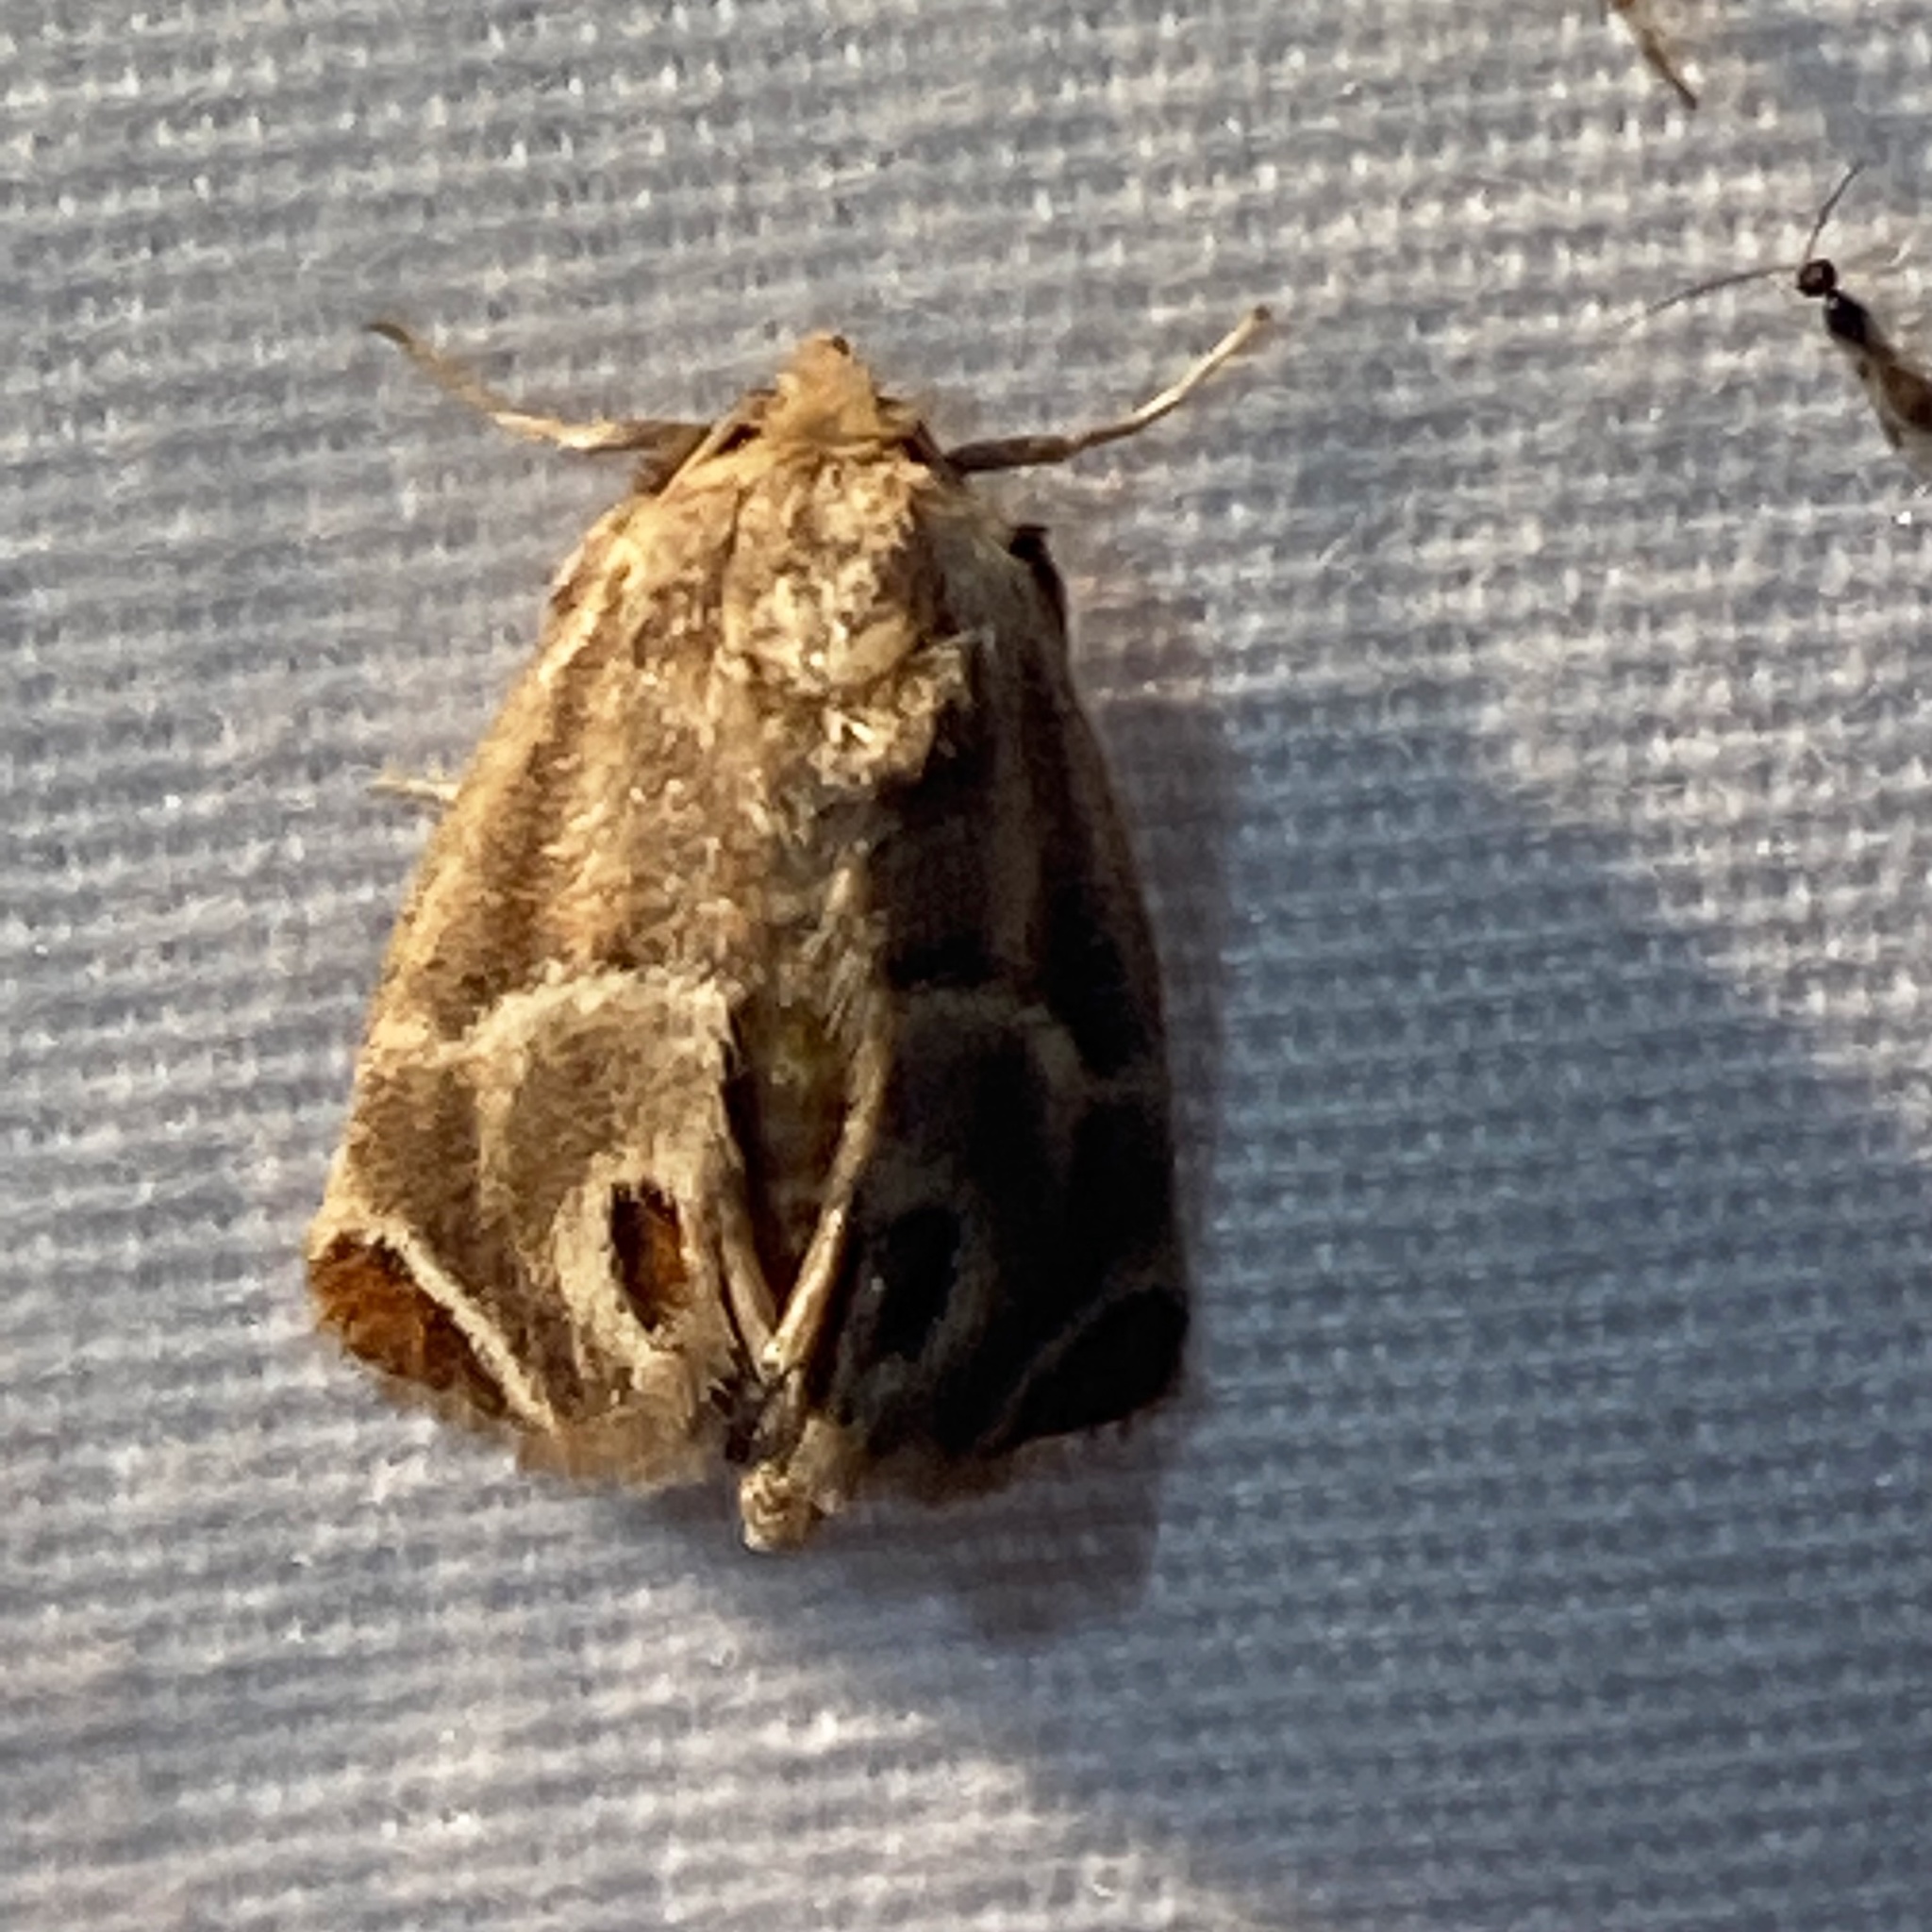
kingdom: Animalia
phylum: Arthropoda
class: Insecta
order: Lepidoptera
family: Limacodidae
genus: Apoda
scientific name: Apoda biguttata
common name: Shagreened slug moth
